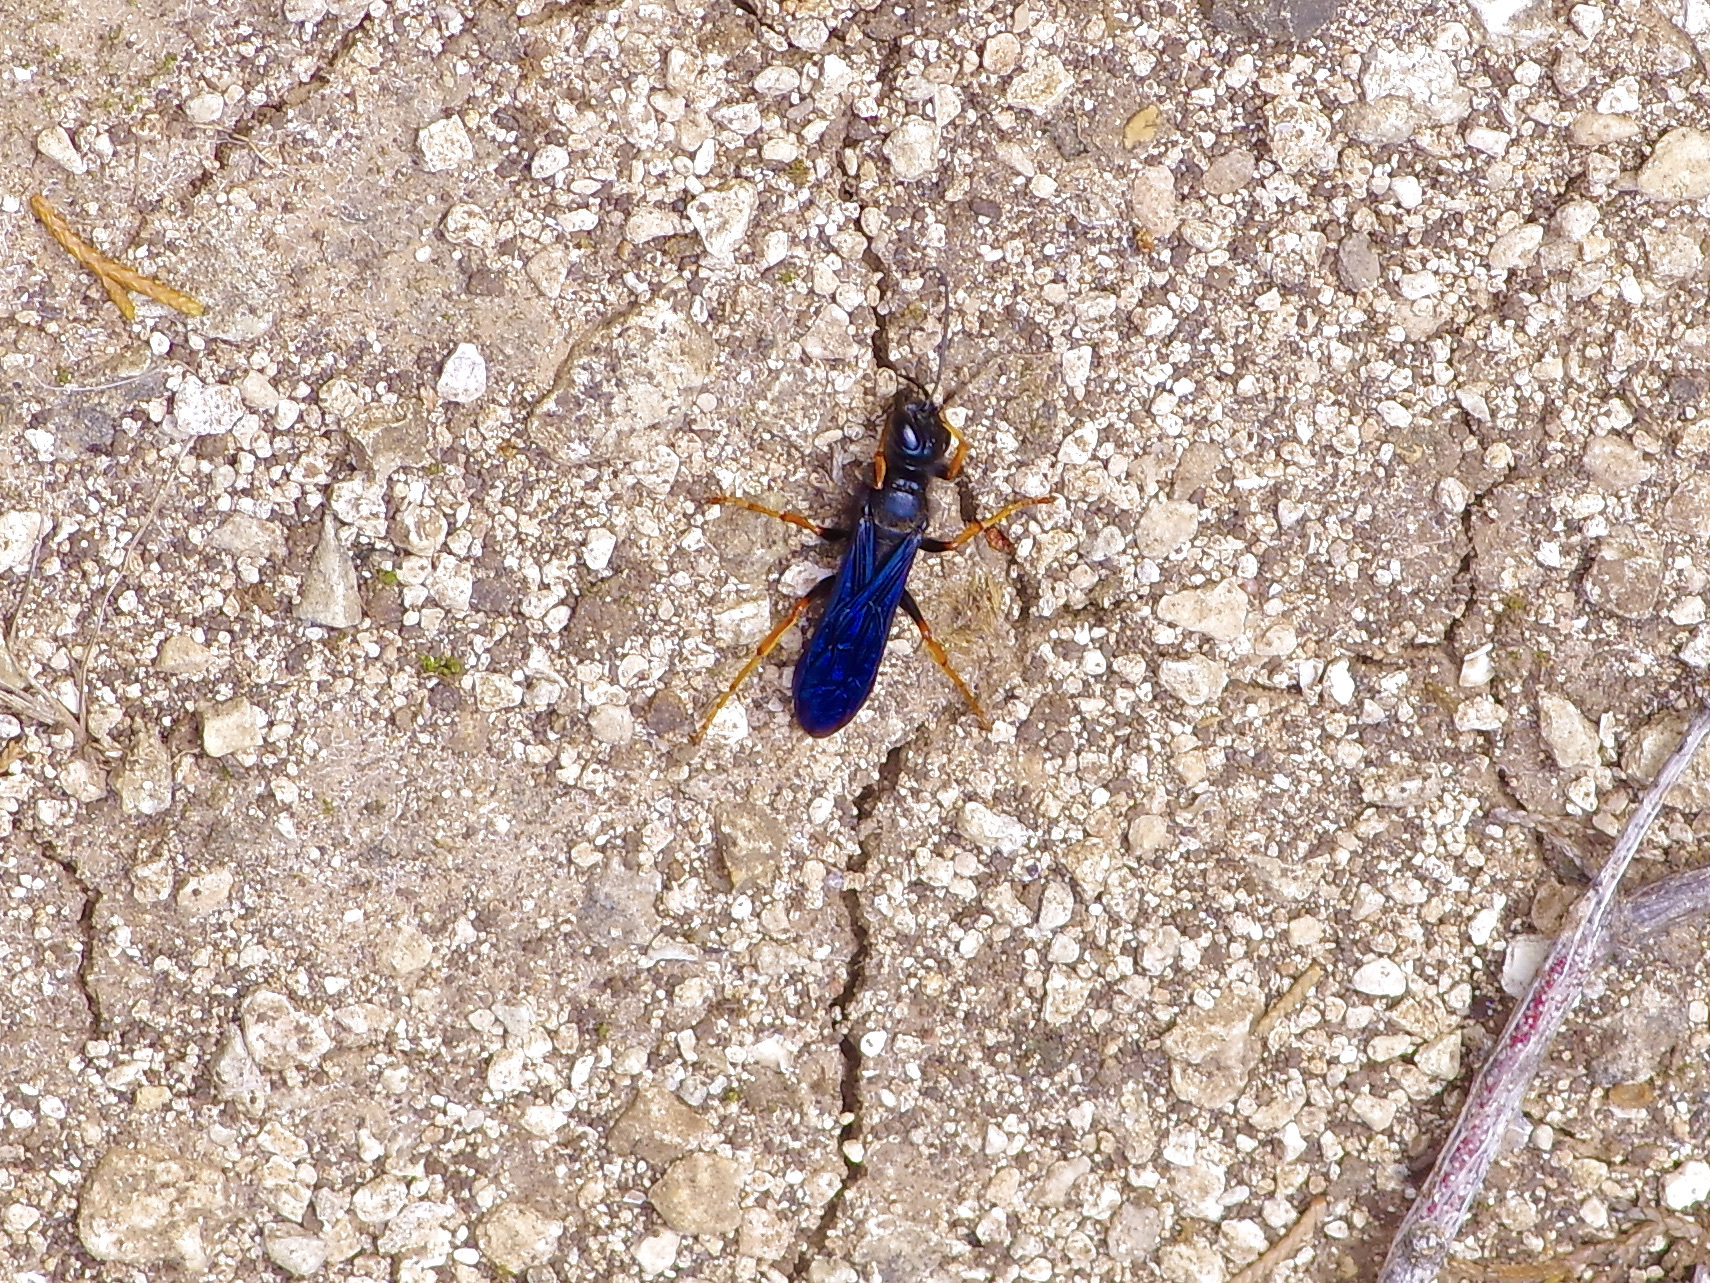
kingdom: Animalia
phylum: Arthropoda
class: Insecta
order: Hymenoptera
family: Sphecidae
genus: Podium
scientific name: Podium luctuosum
